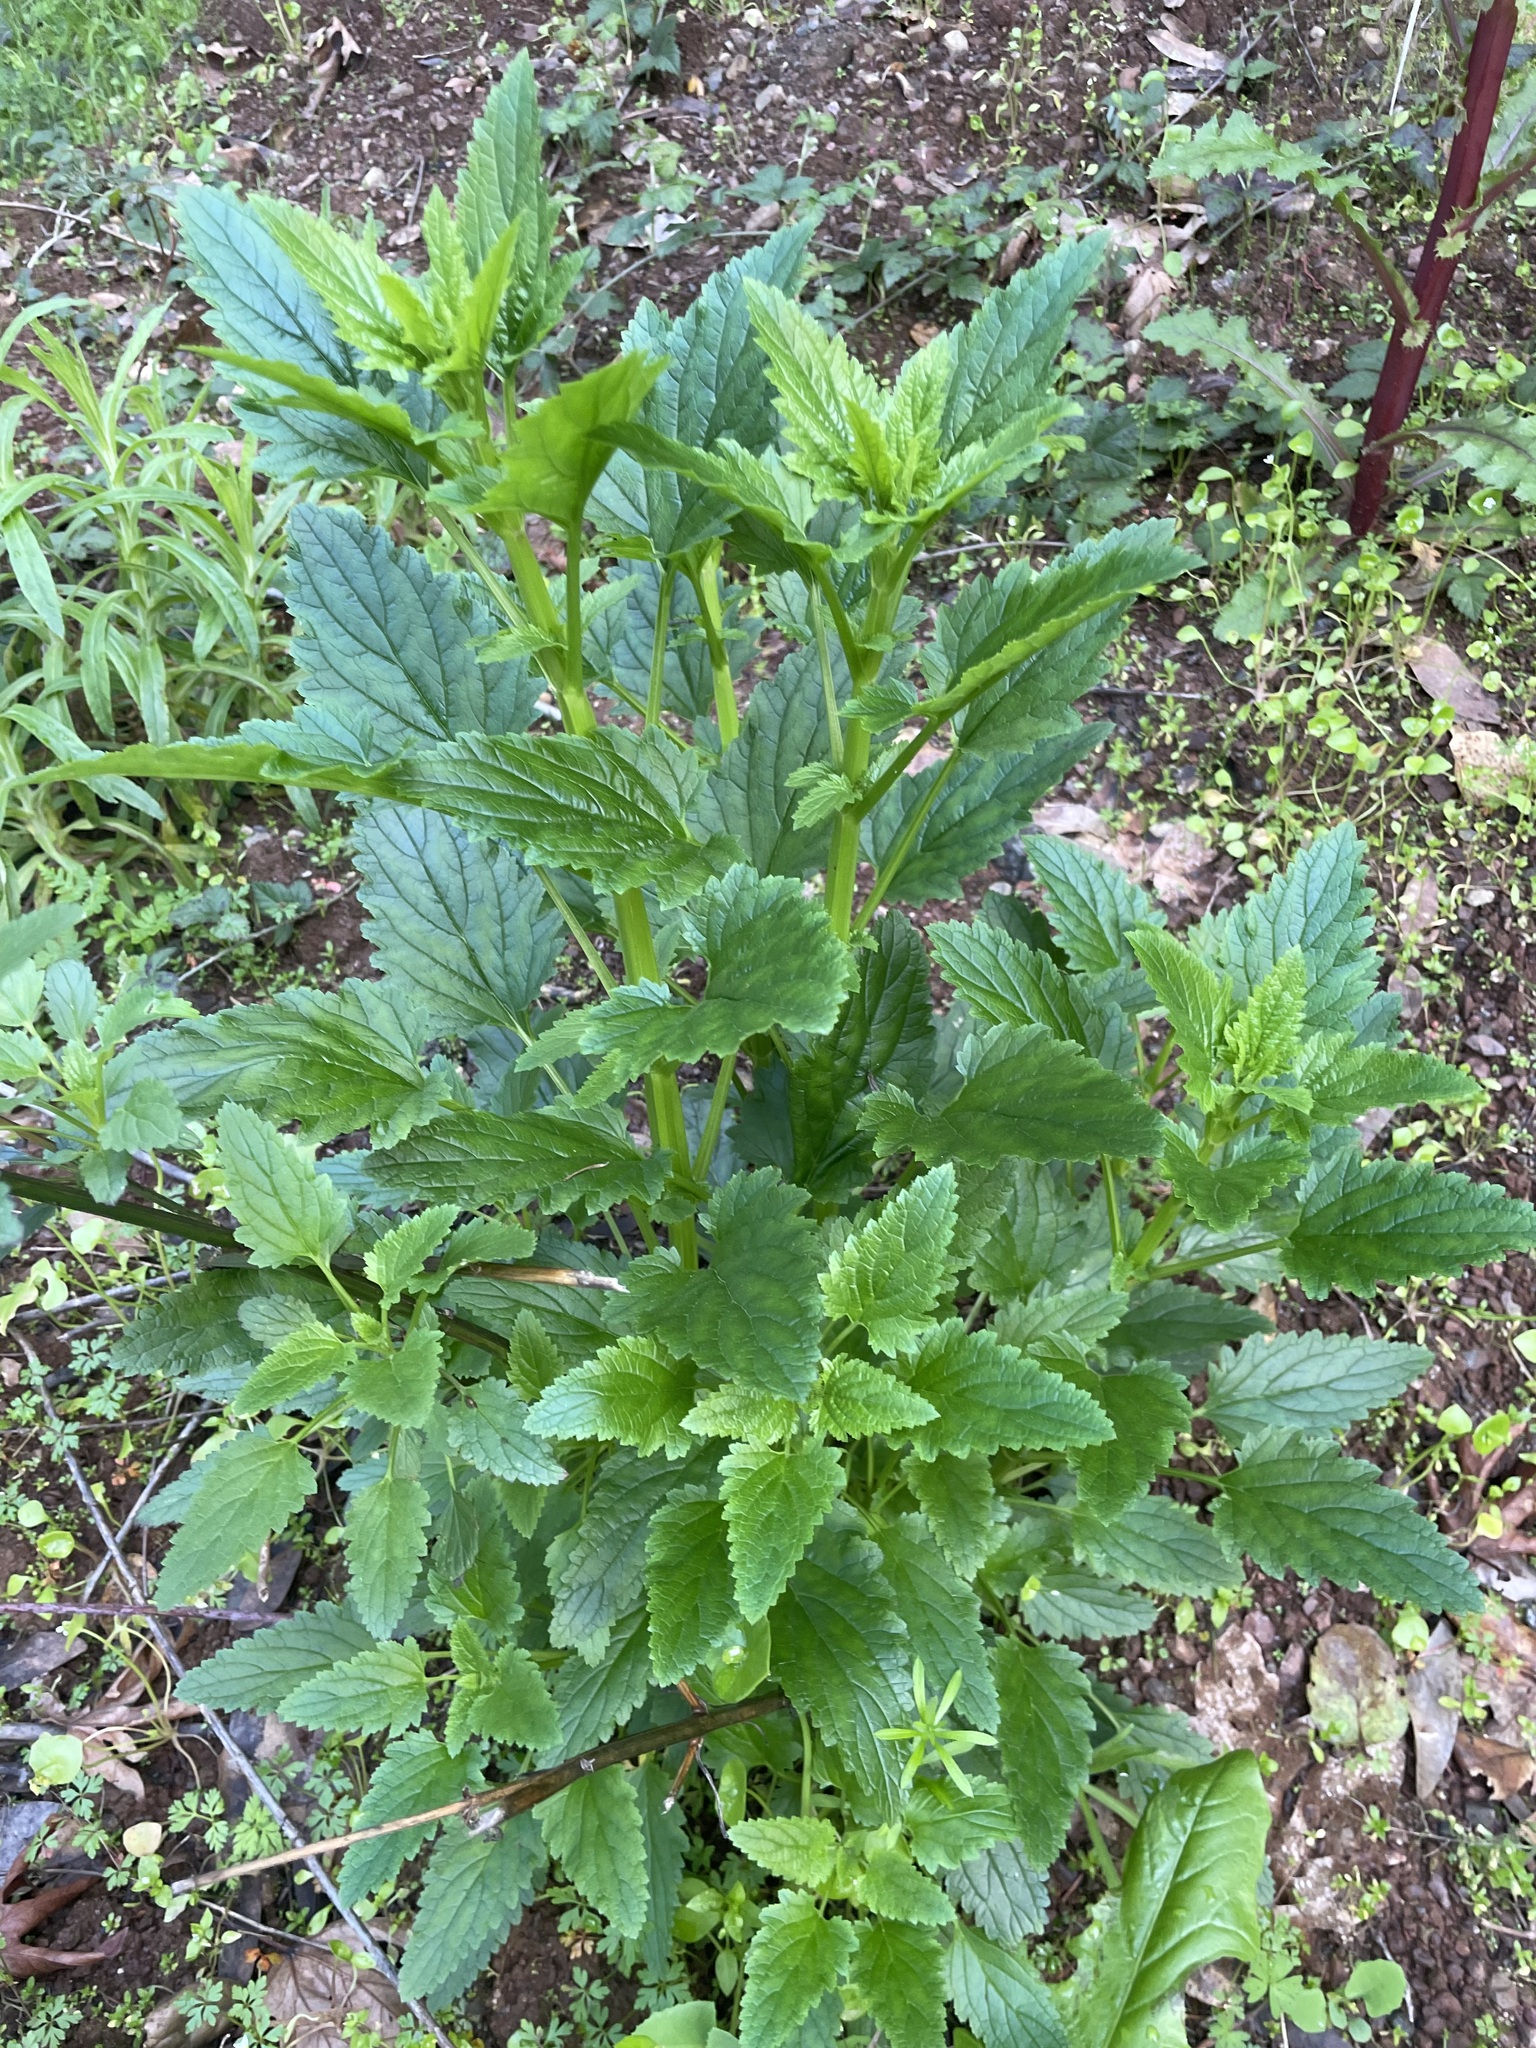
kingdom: Plantae
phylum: Tracheophyta
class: Magnoliopsida
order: Lamiales
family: Scrophulariaceae
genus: Scrophularia
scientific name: Scrophularia californica
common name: California figwort
